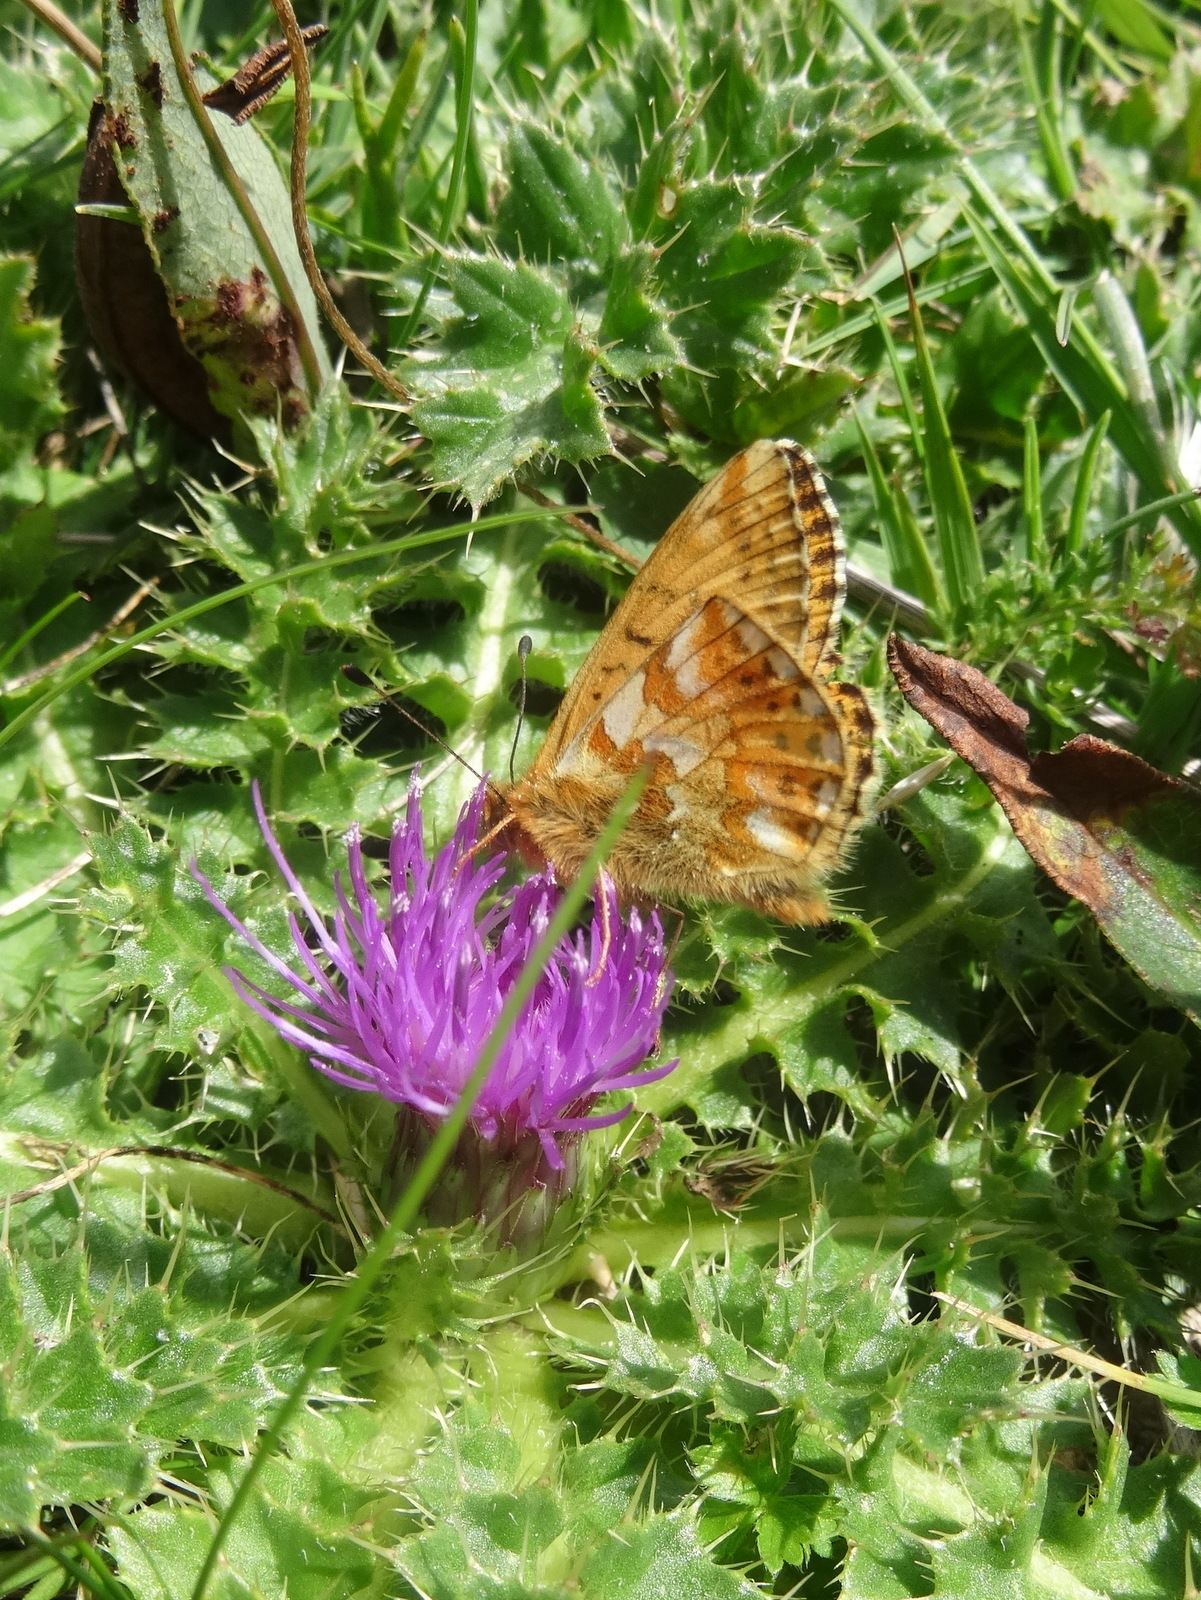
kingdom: Animalia
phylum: Arthropoda
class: Insecta
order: Lepidoptera
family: Nymphalidae
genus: Boloria
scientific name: Boloria napaea
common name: Mountain fritillary
